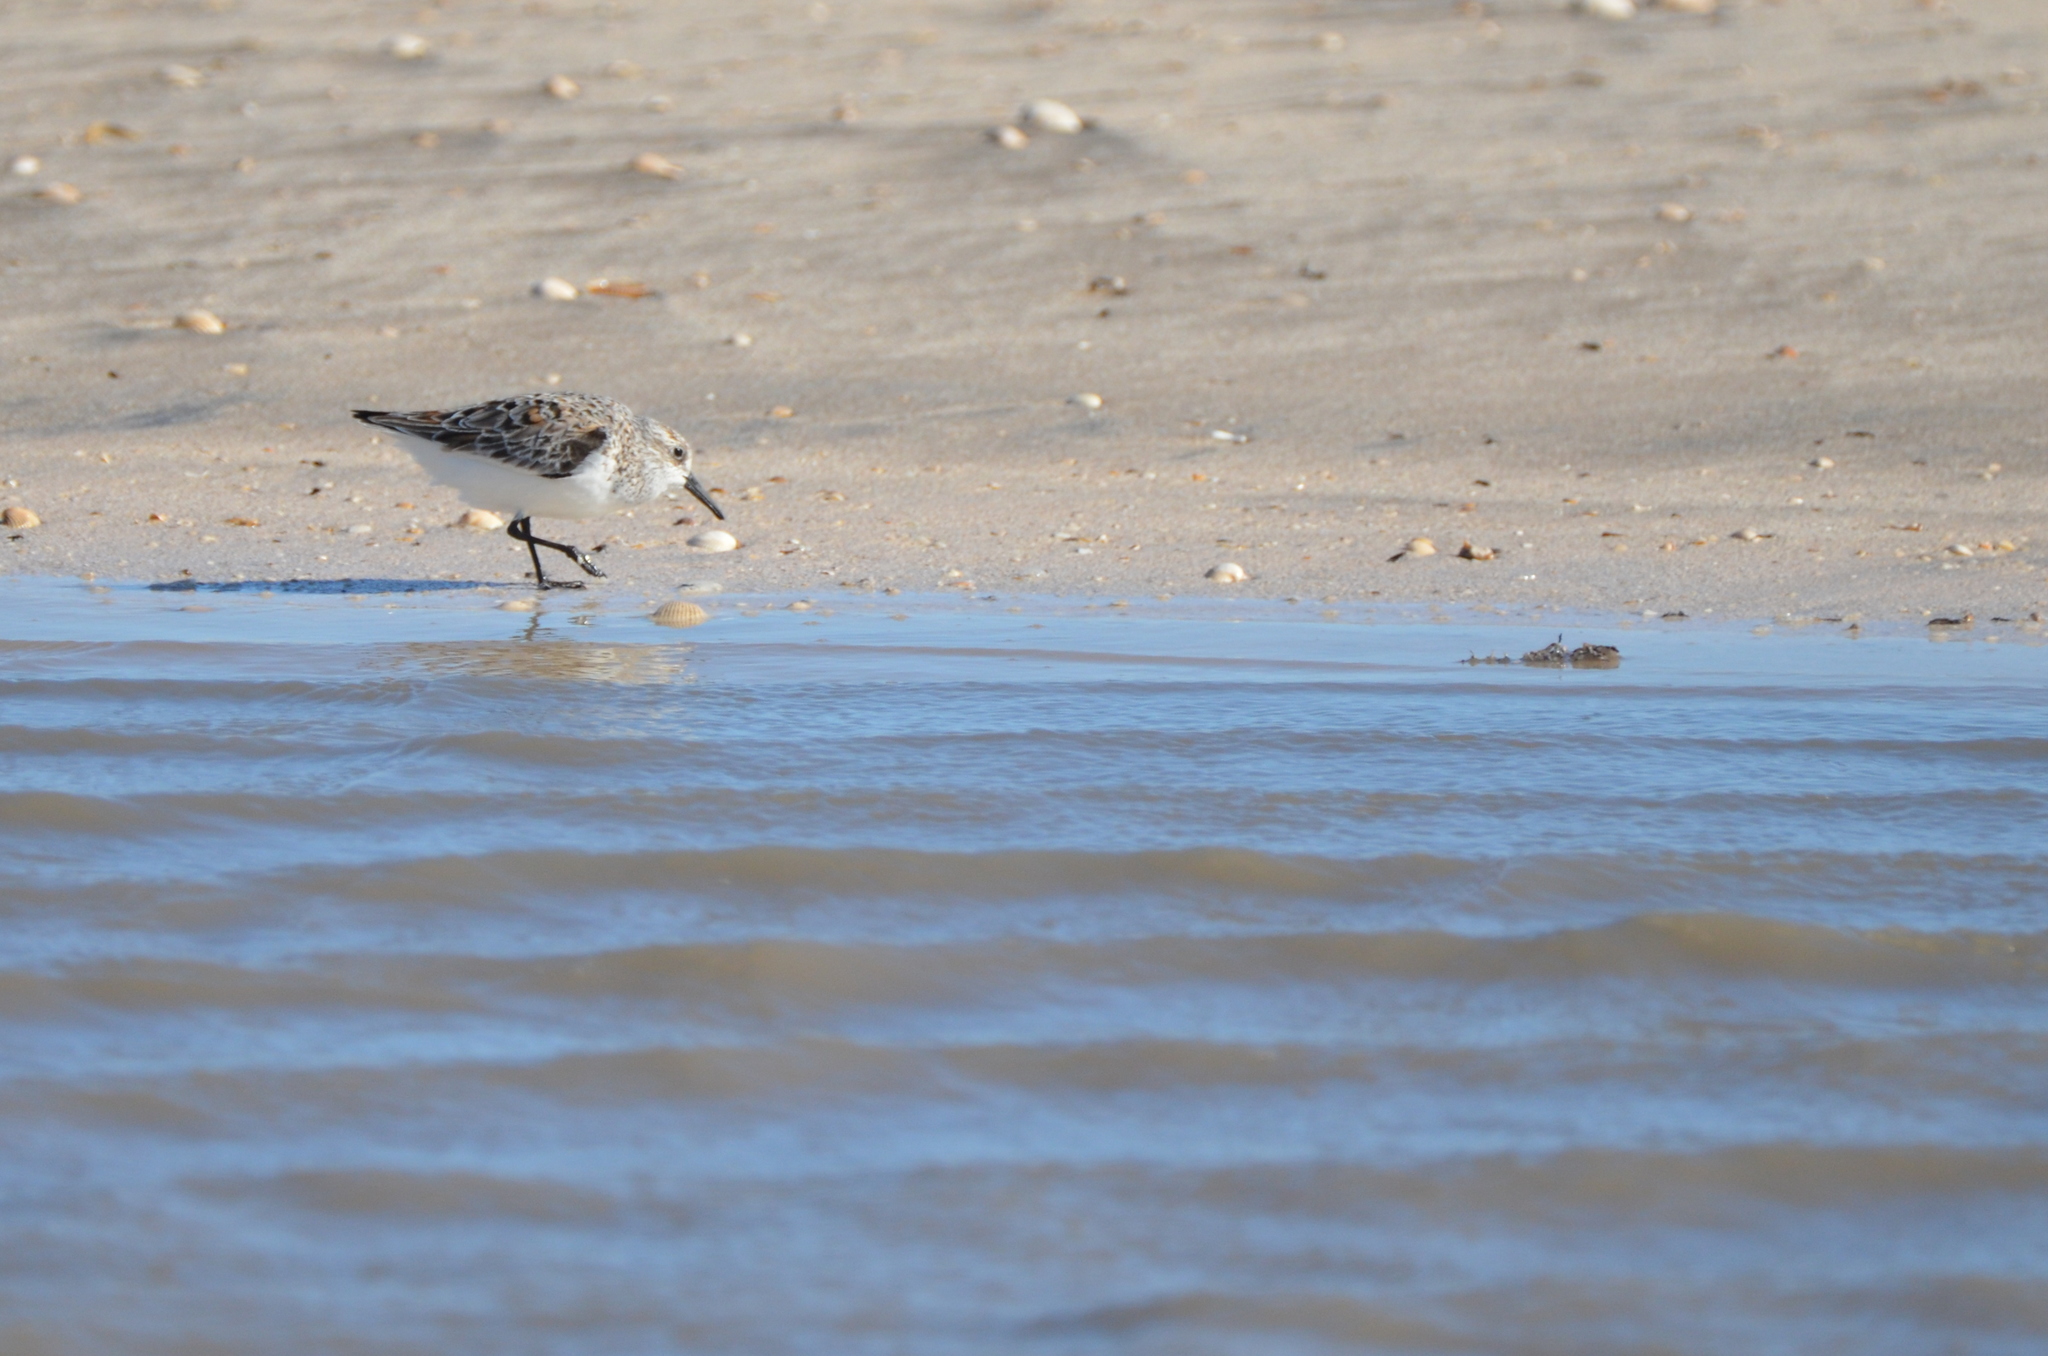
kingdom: Animalia
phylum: Chordata
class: Aves
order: Charadriiformes
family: Scolopacidae
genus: Calidris
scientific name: Calidris alba
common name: Sanderling
